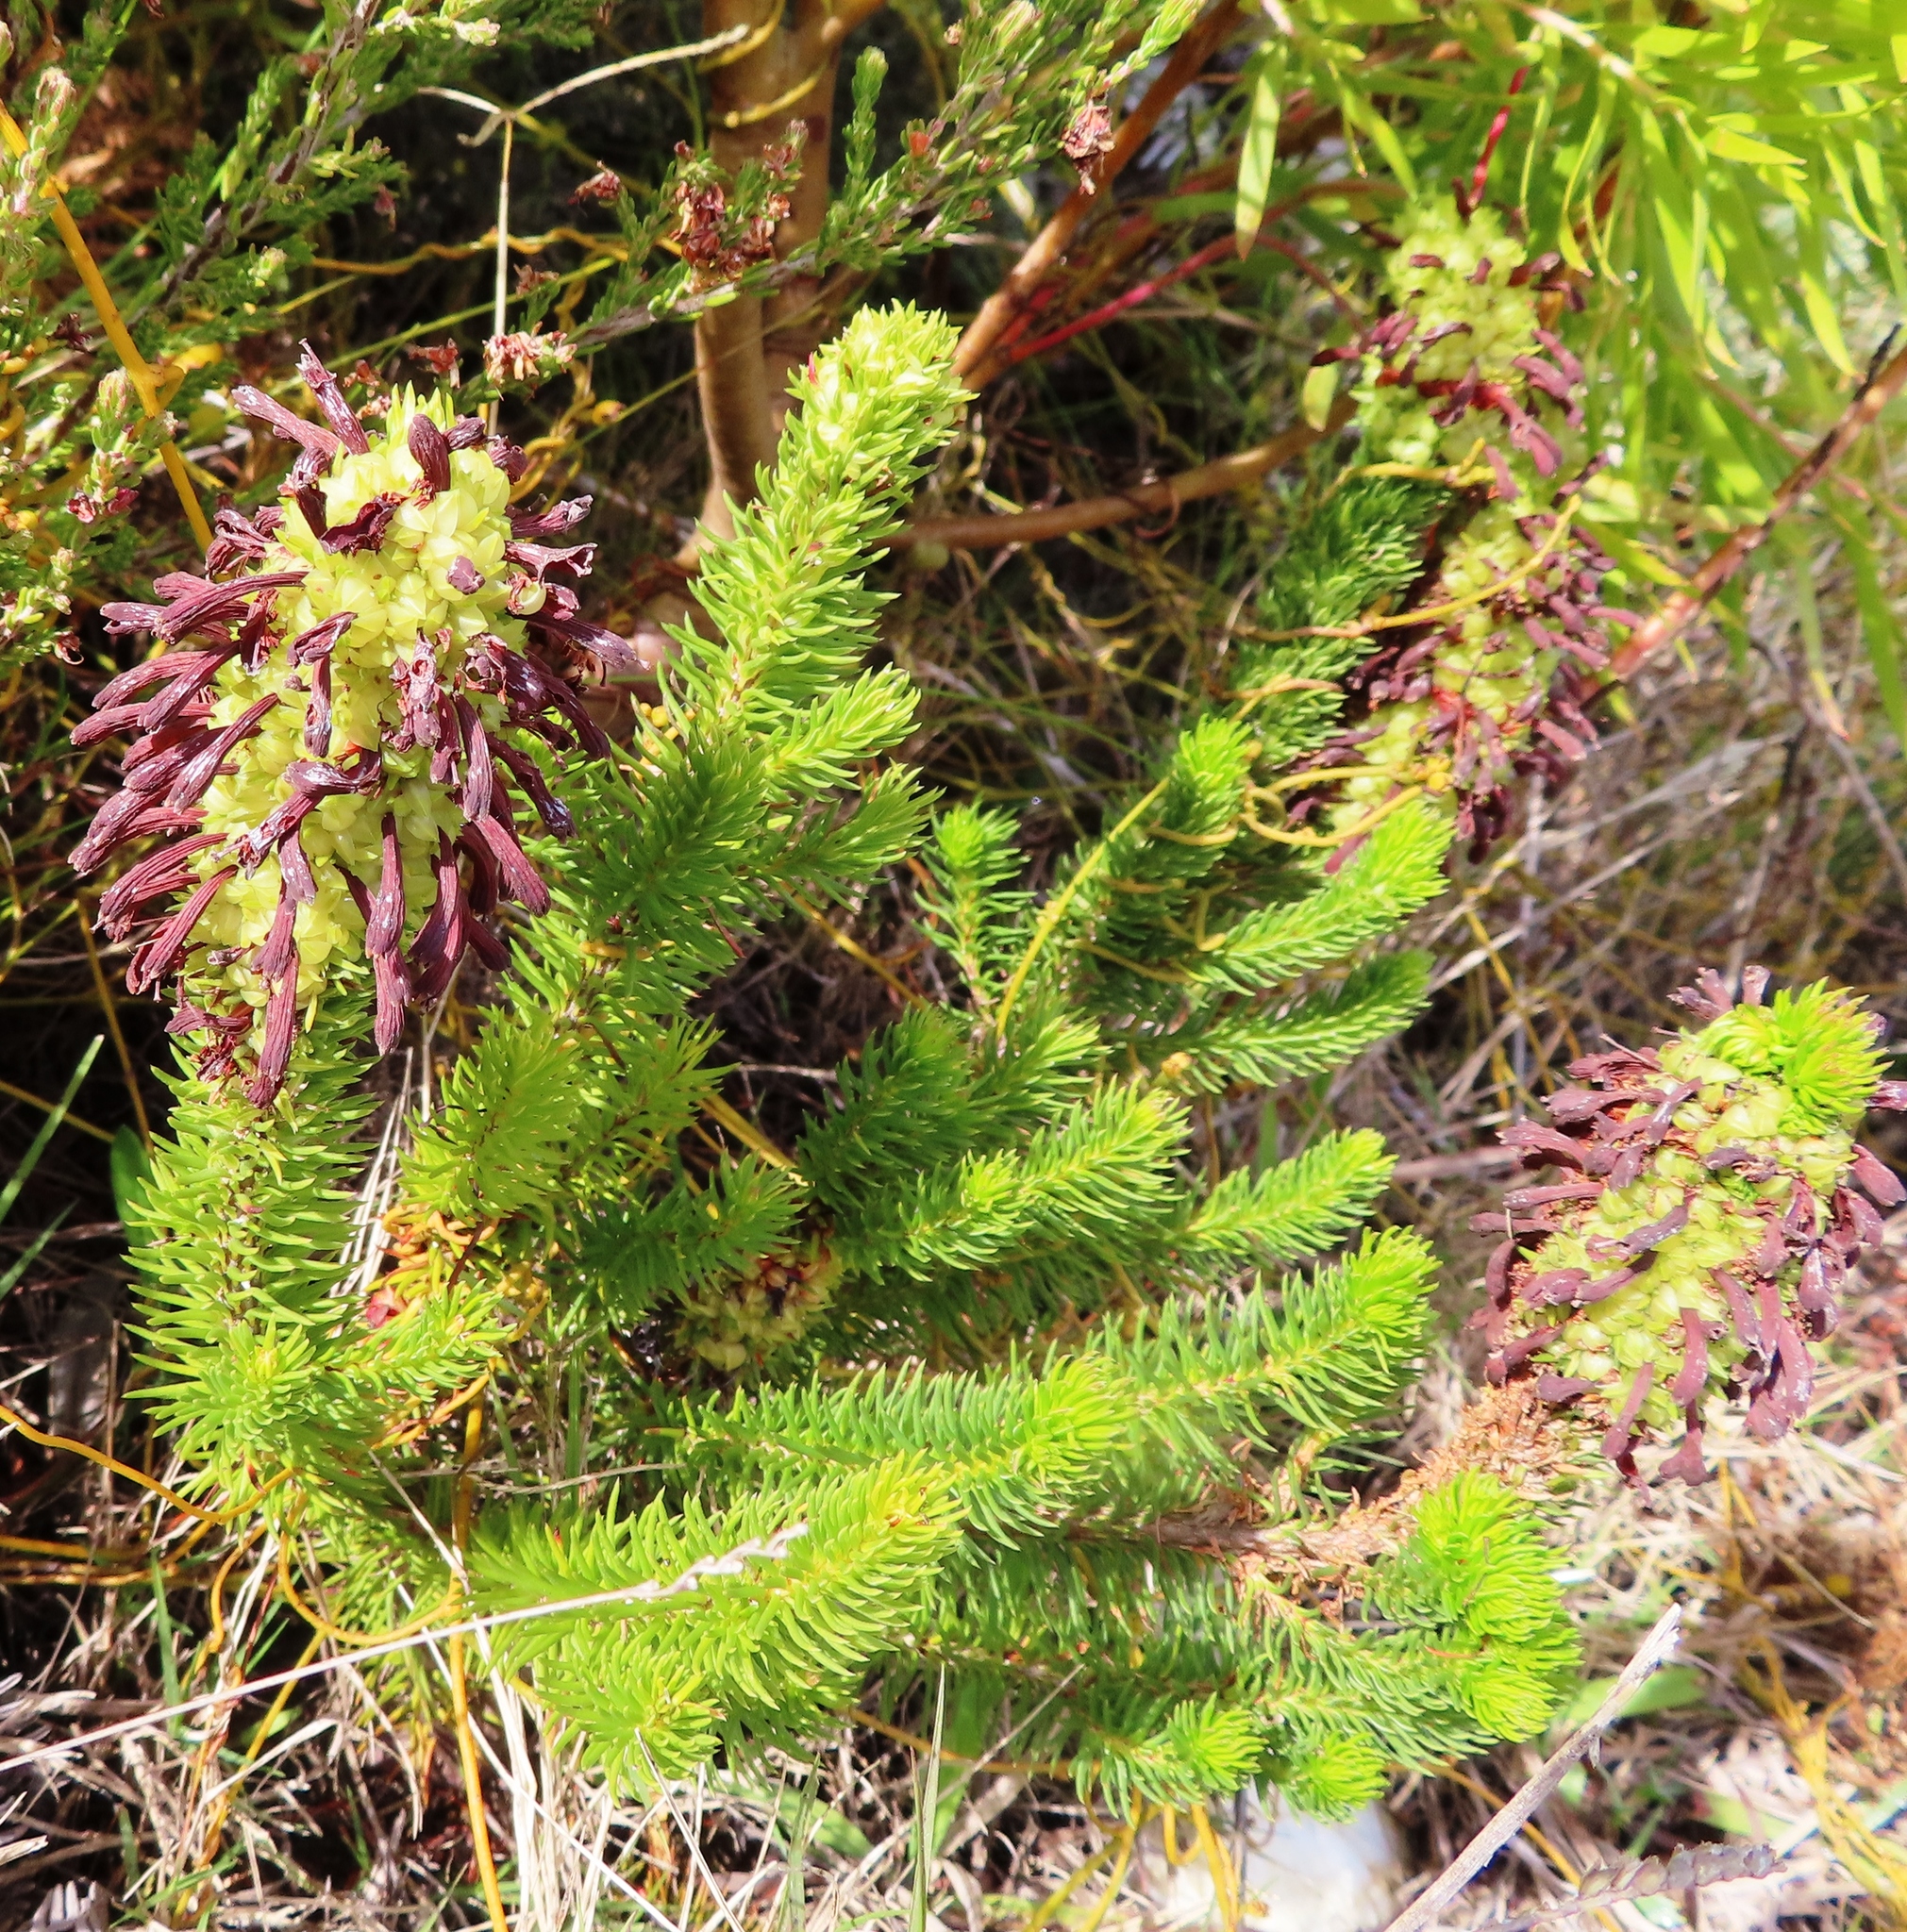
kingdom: Plantae
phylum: Tracheophyta
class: Magnoliopsida
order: Ericales
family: Ericaceae
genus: Erica
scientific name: Erica sessiliflora
